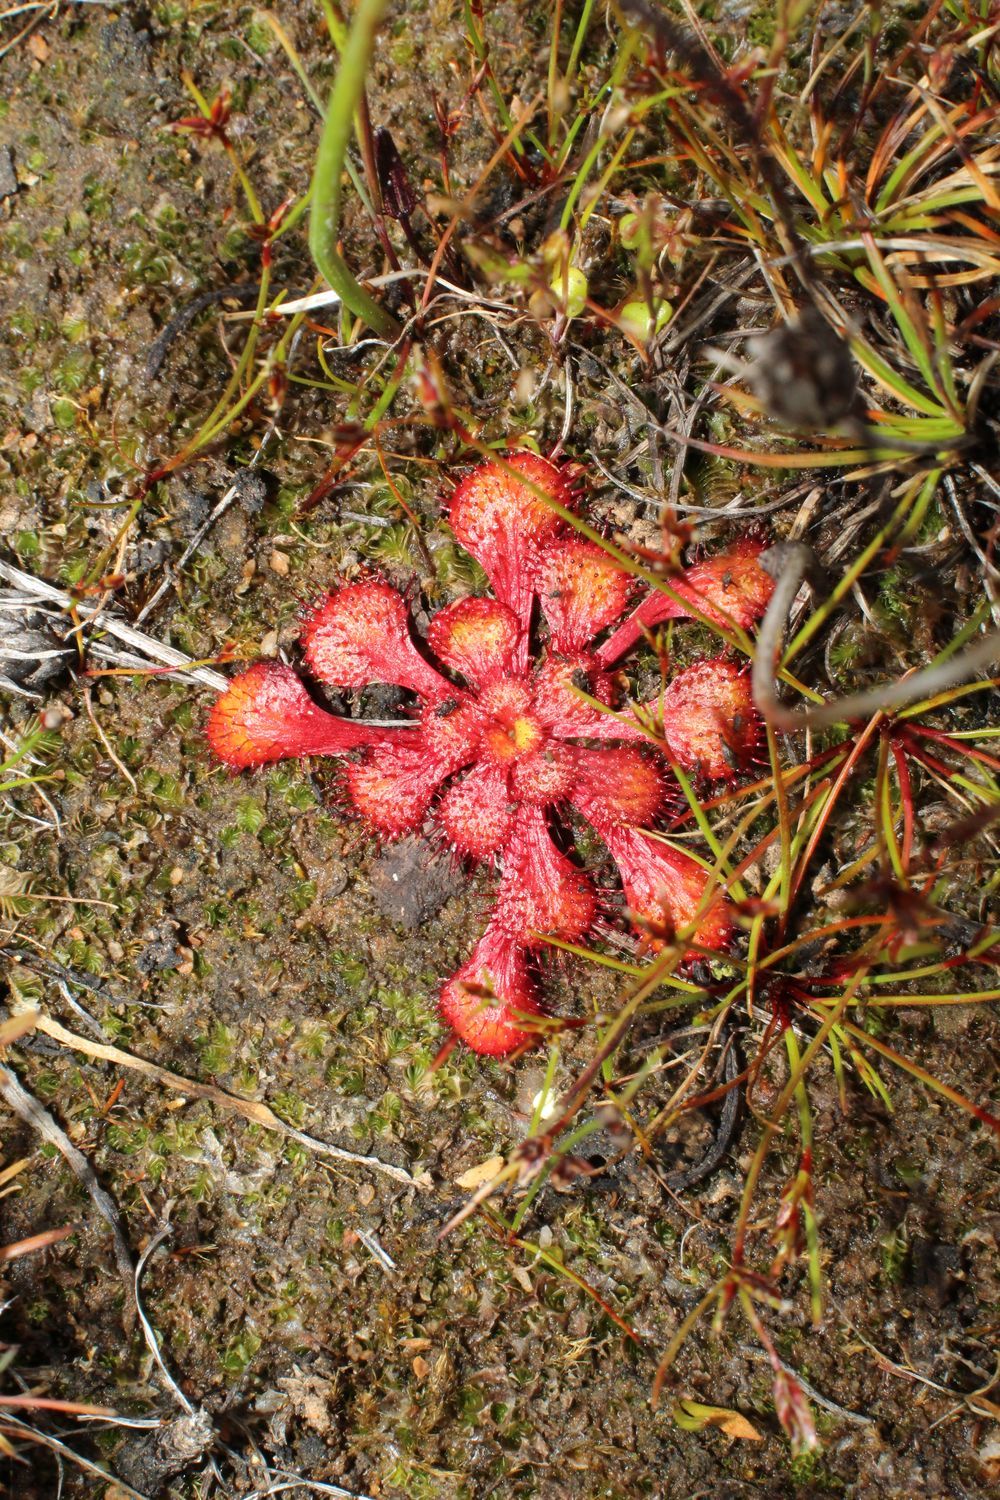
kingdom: Plantae
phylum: Tracheophyta
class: Magnoliopsida
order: Caryophyllales
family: Droseraceae
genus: Drosera
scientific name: Drosera lowriei
